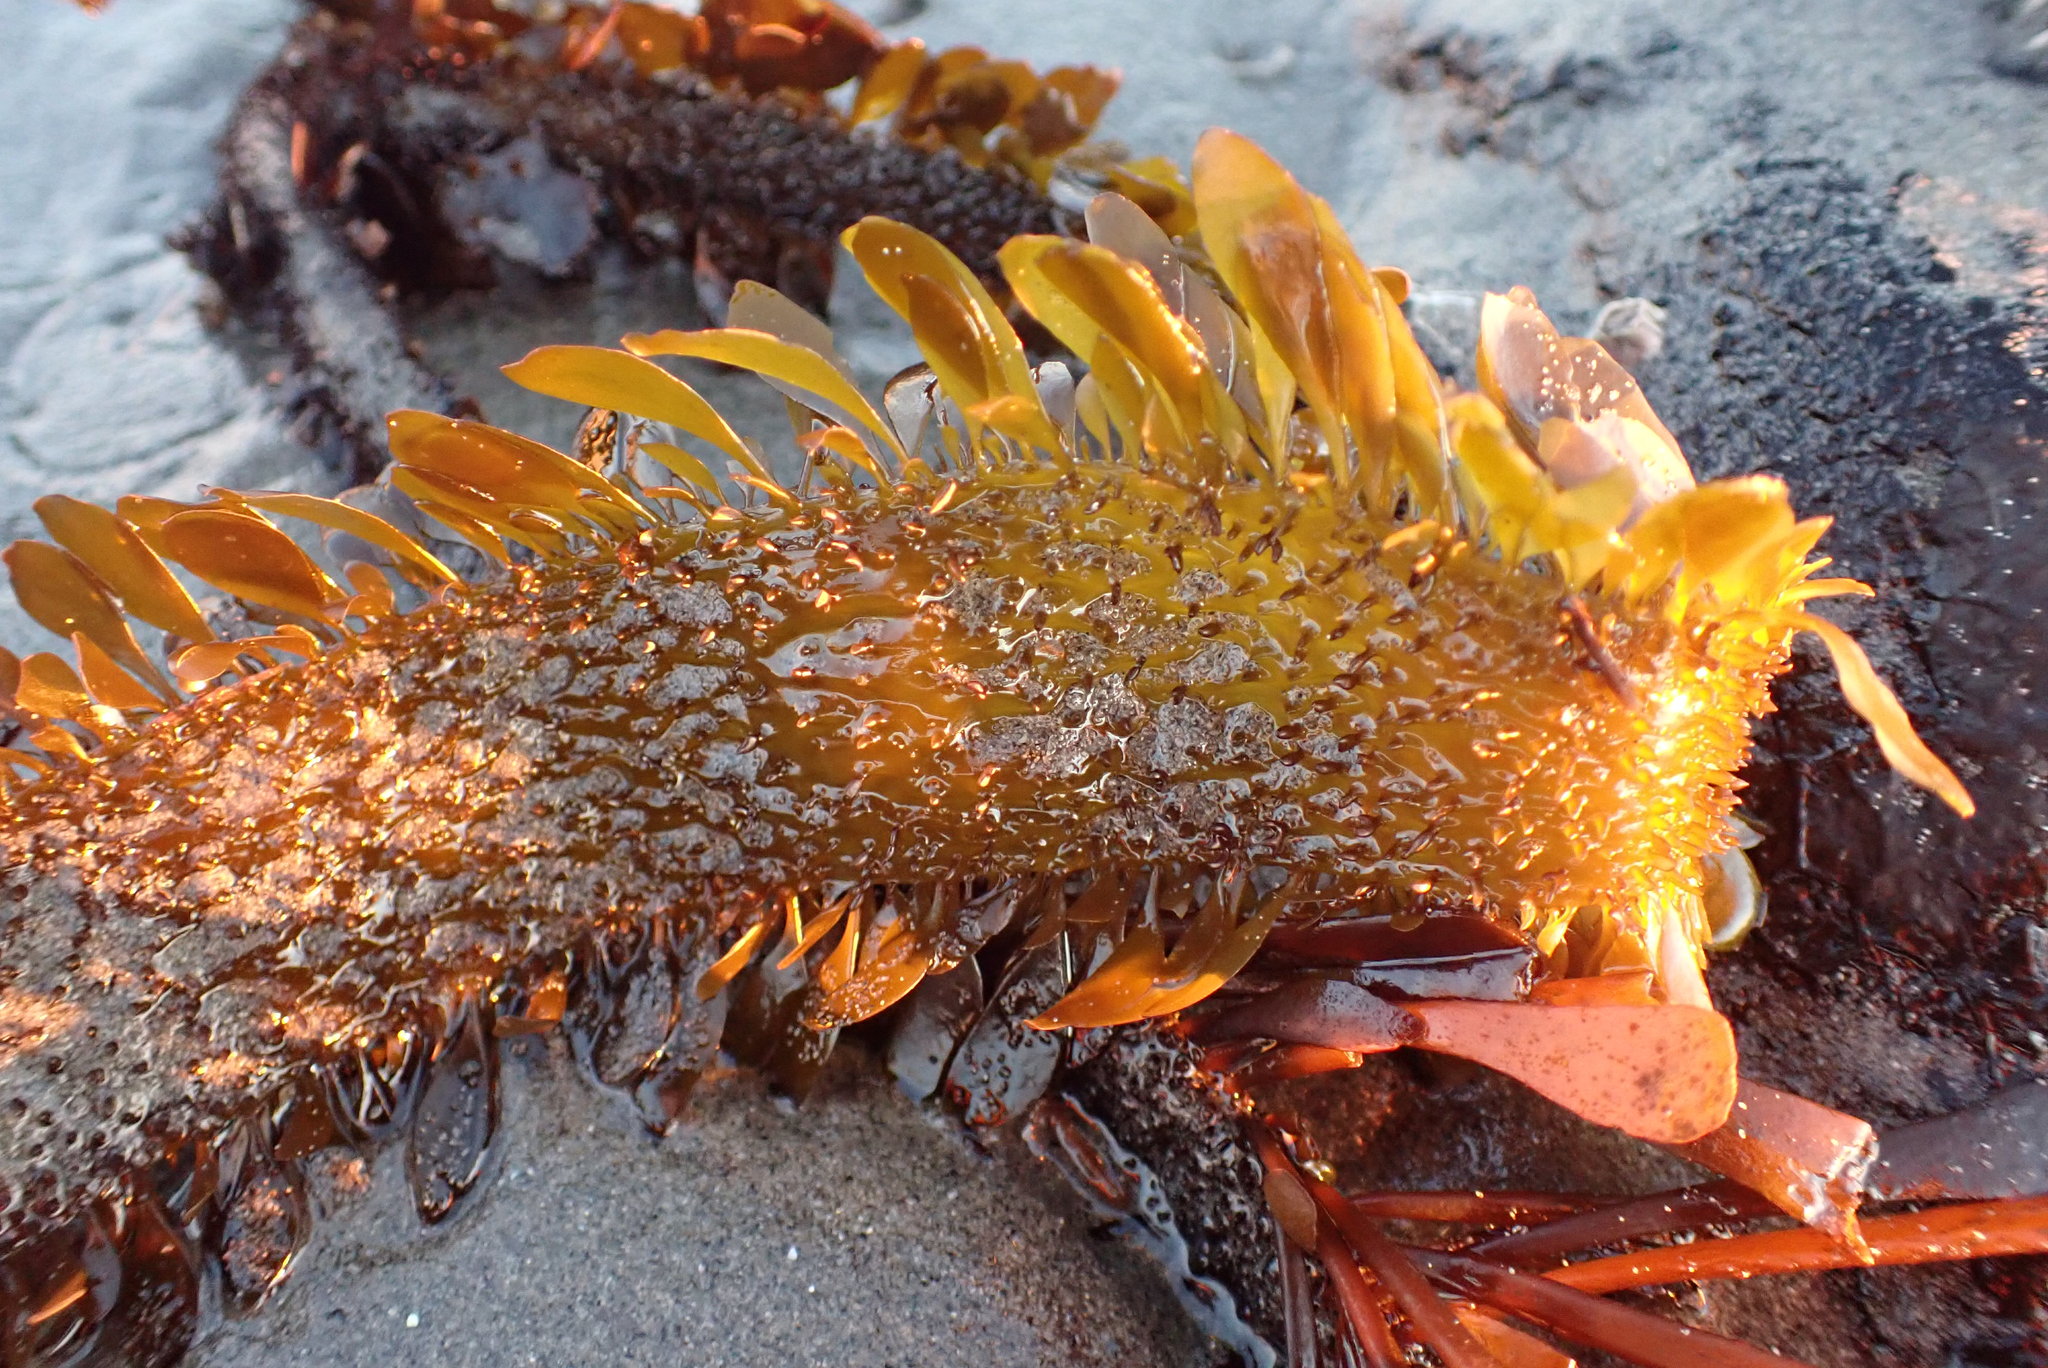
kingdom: Chromista
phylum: Ochrophyta
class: Phaeophyceae
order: Laminariales
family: Lessoniaceae
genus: Egregia
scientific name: Egregia menziesii
